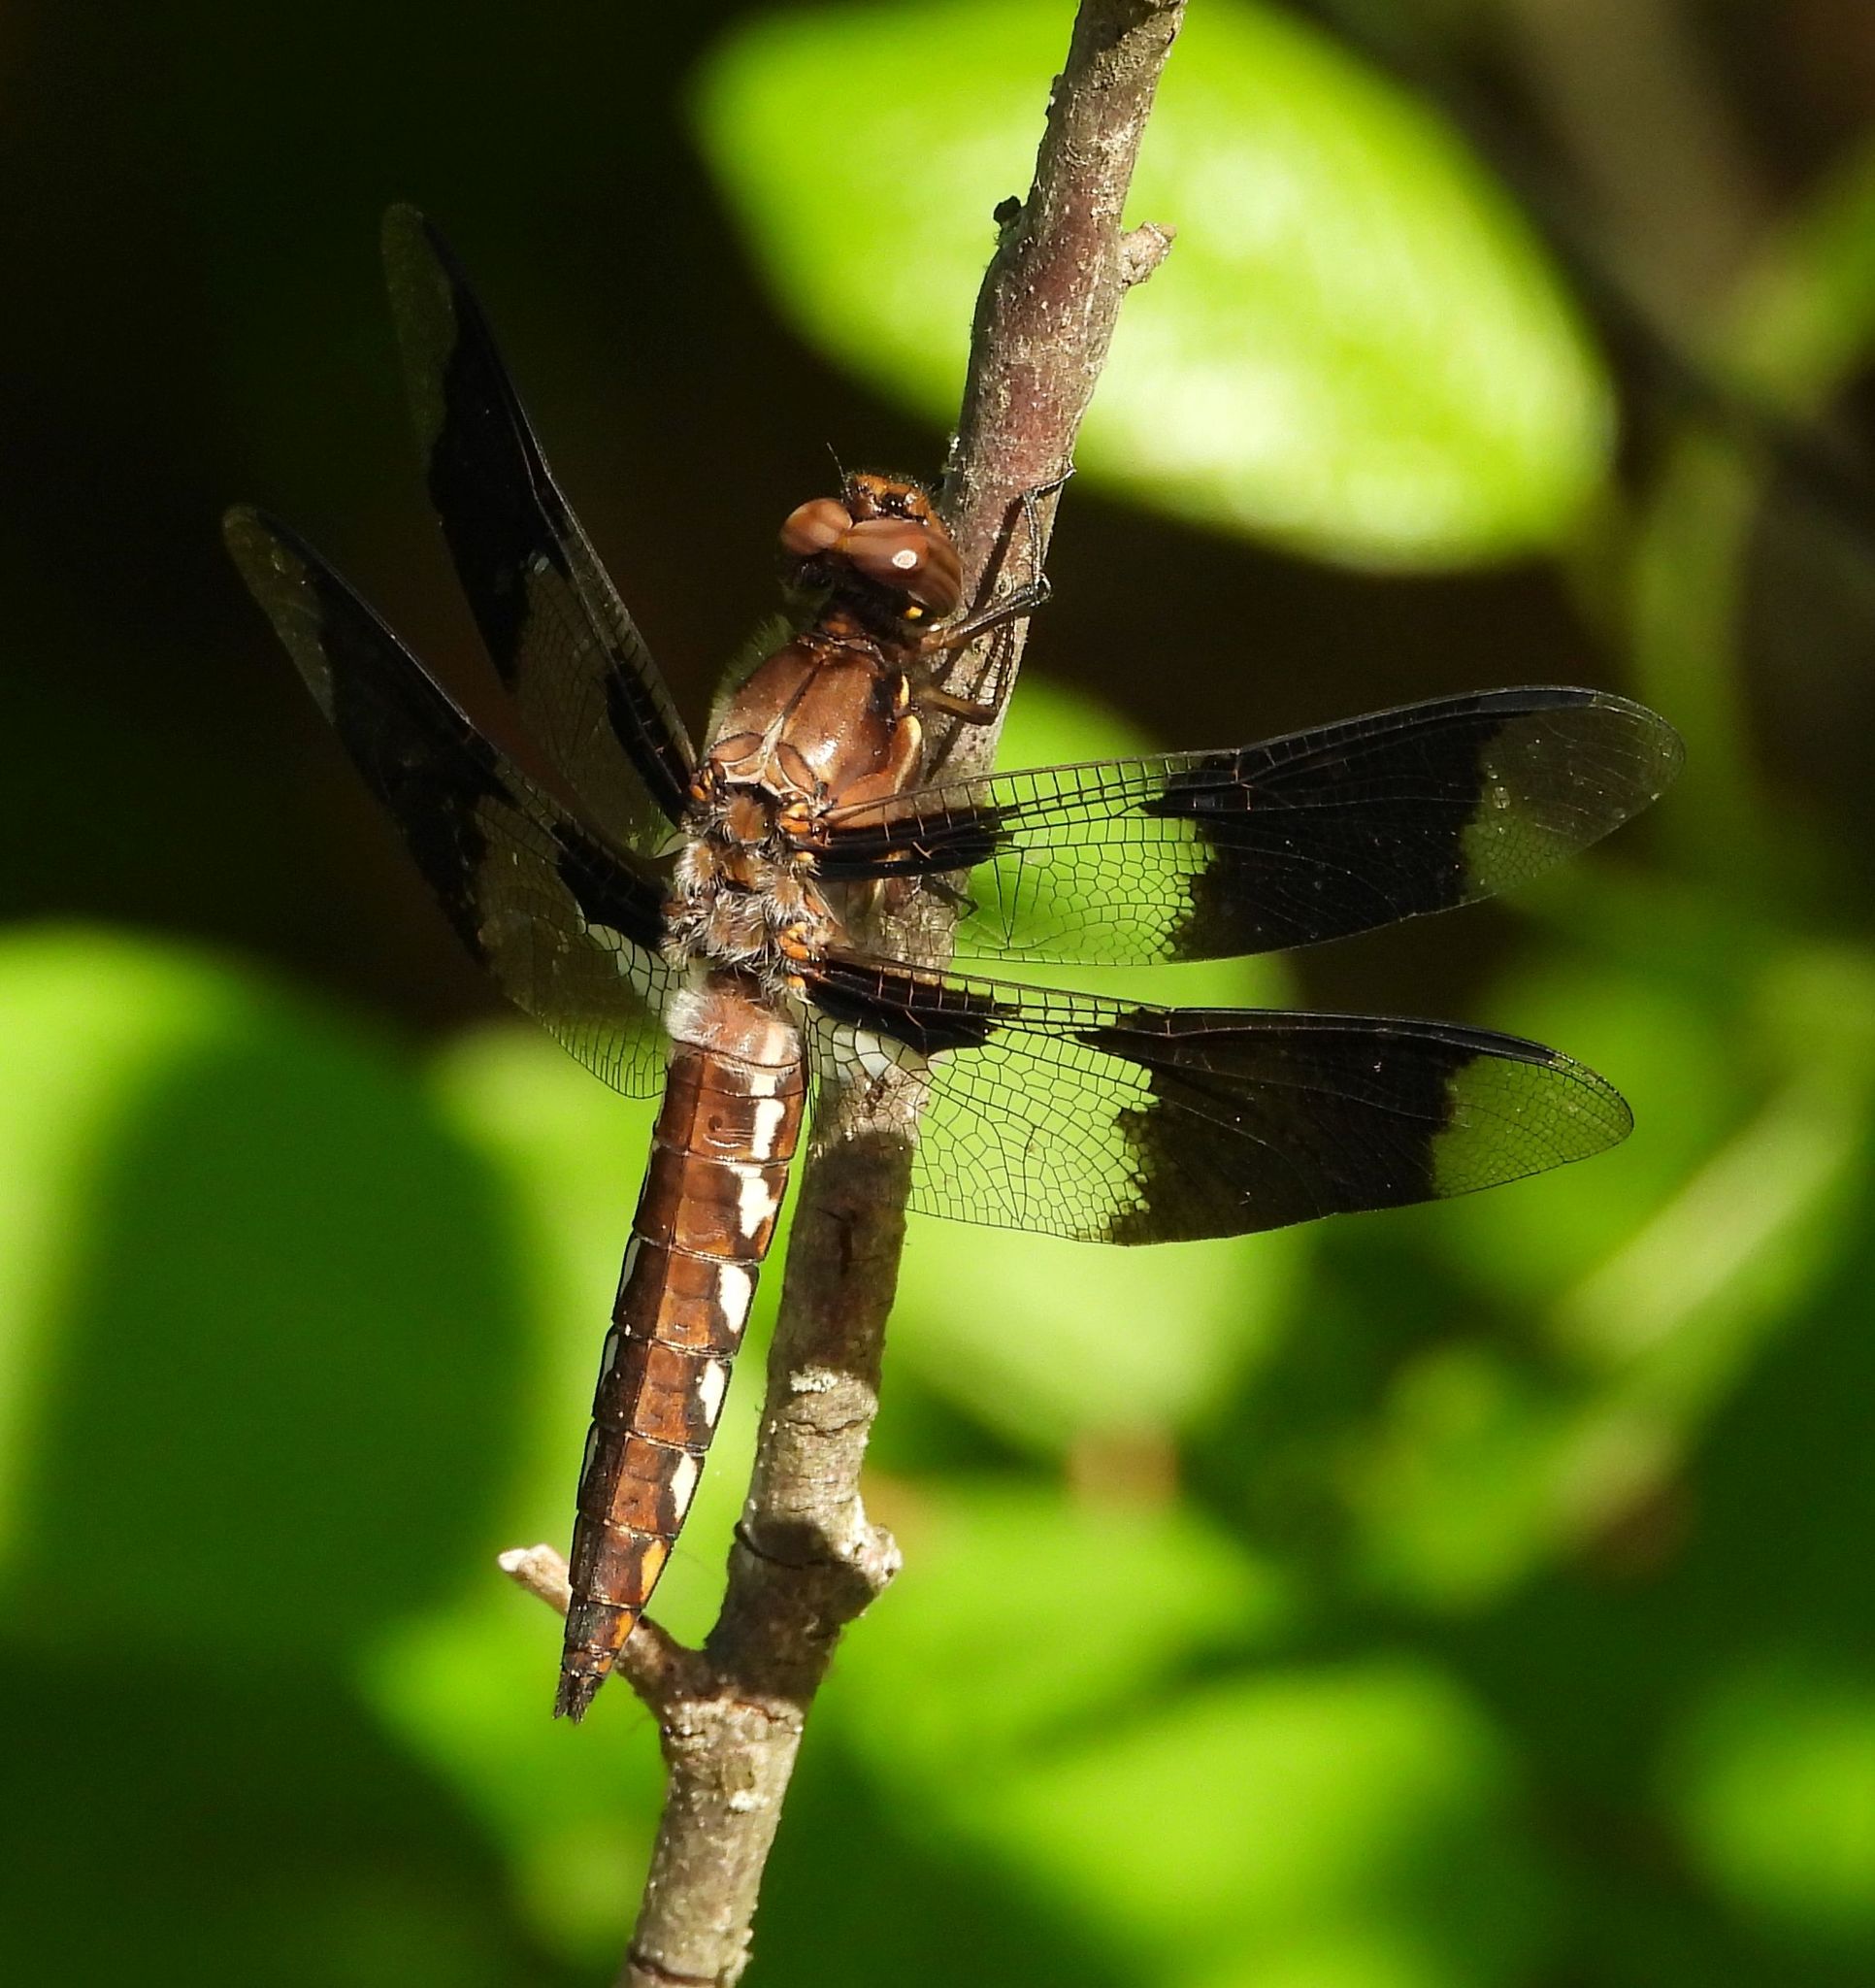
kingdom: Animalia
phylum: Arthropoda
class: Insecta
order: Odonata
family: Libellulidae
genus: Plathemis
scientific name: Plathemis lydia
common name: Common whitetail
